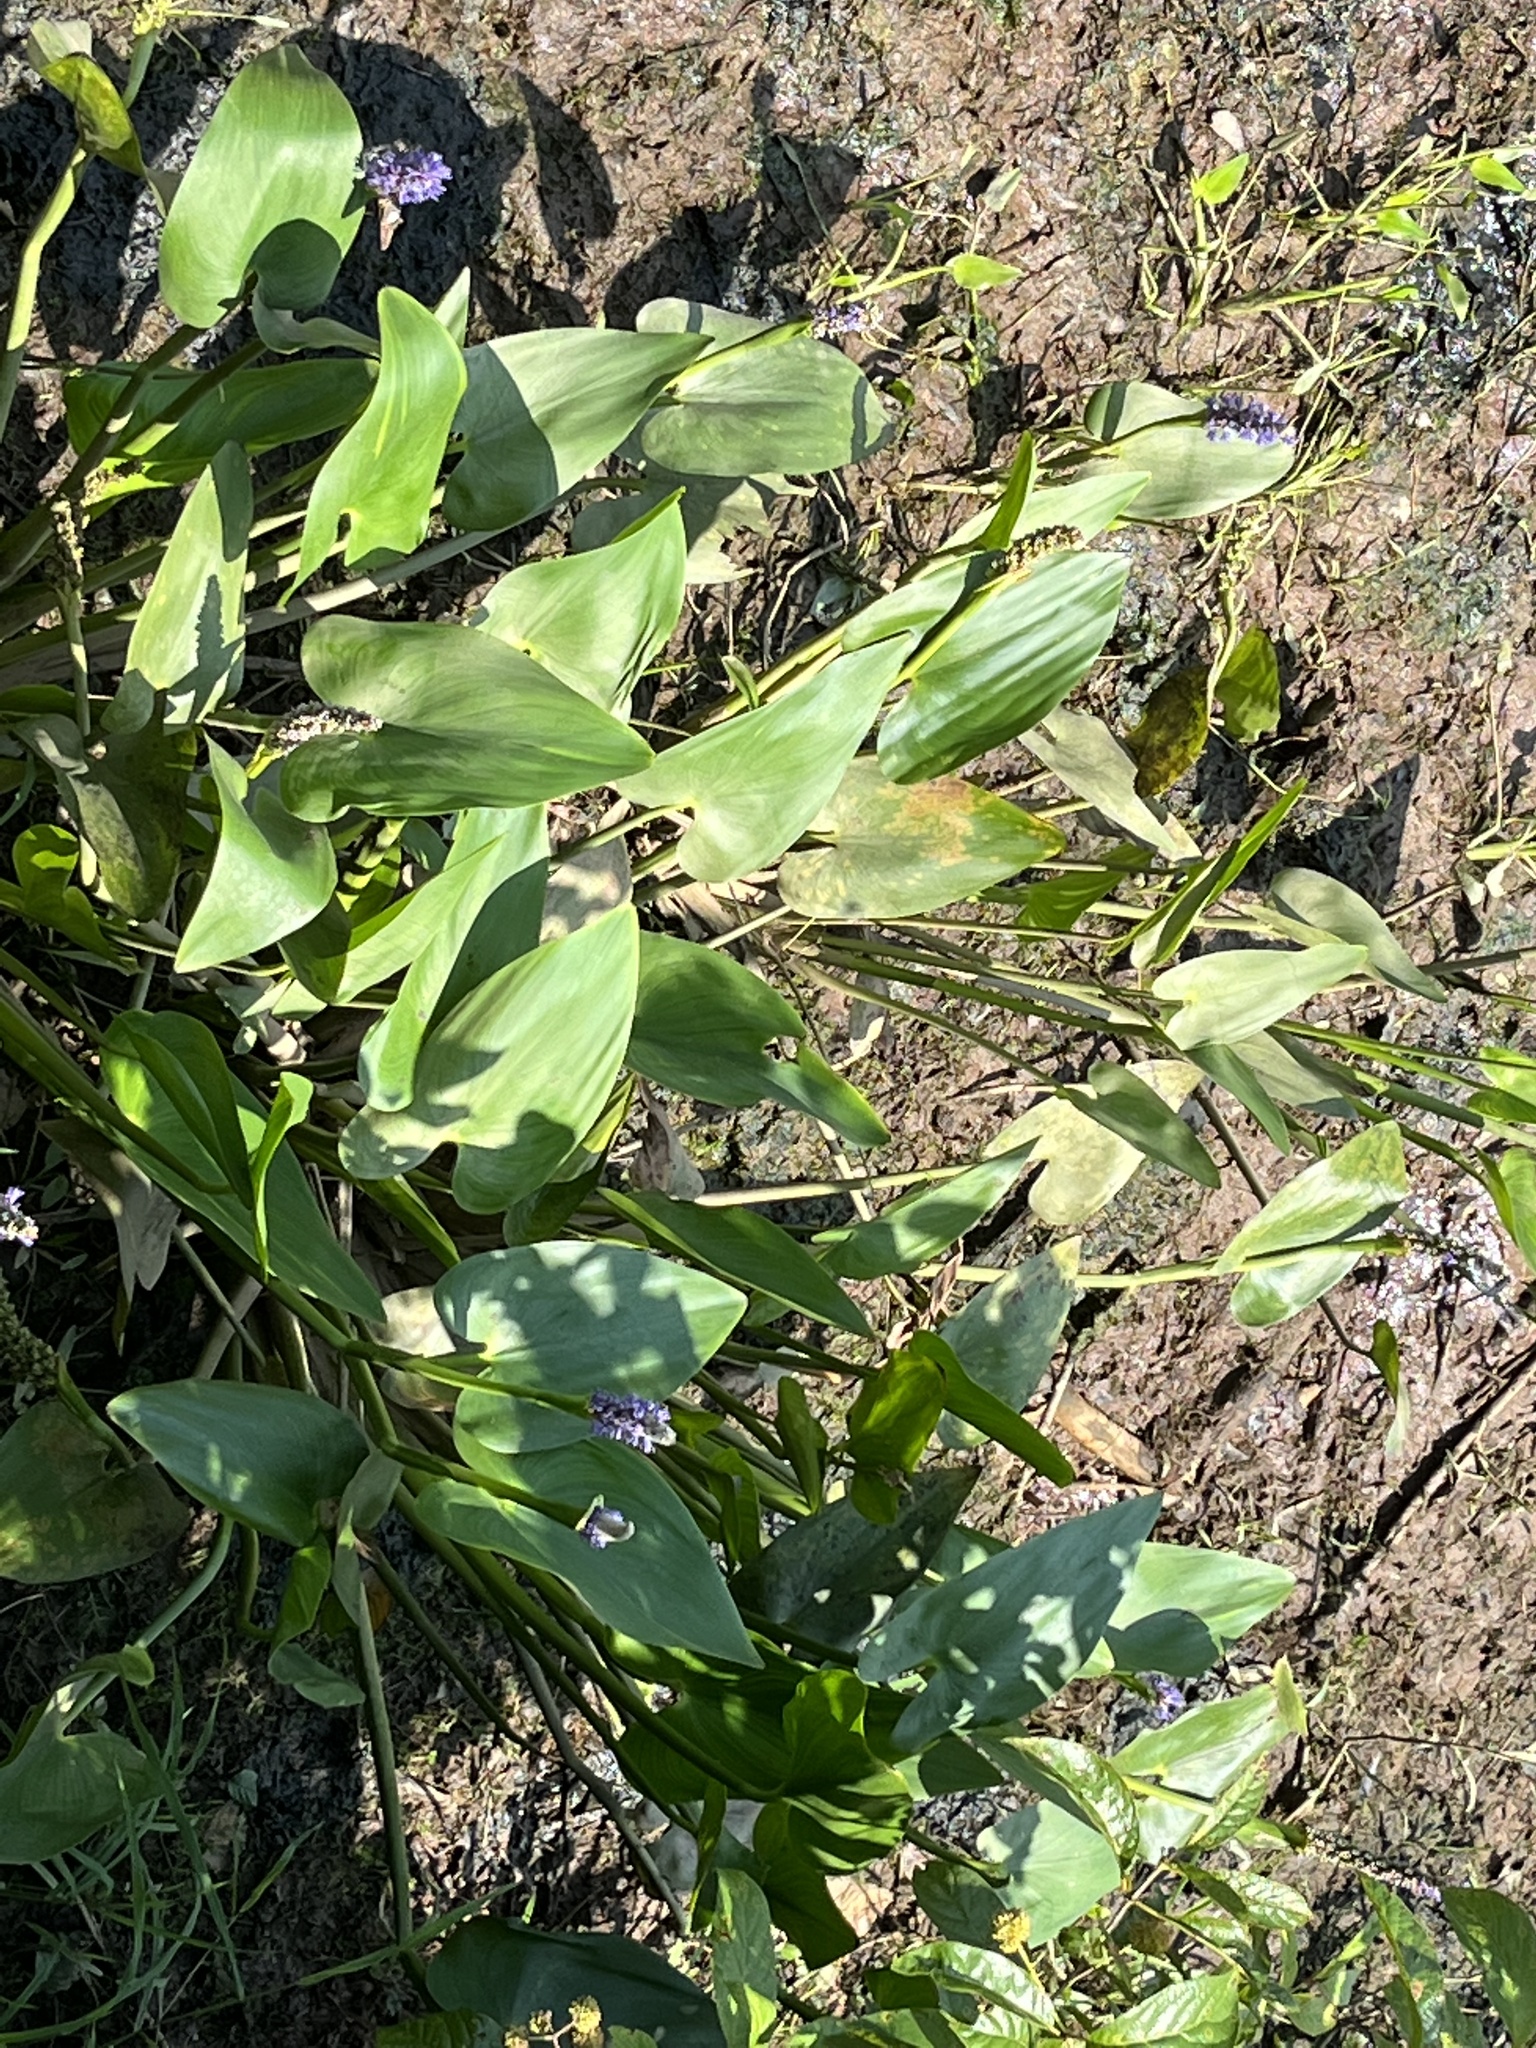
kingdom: Plantae
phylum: Tracheophyta
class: Liliopsida
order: Commelinales
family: Pontederiaceae
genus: Pontederia
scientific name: Pontederia cordata
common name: Pickerelweed
